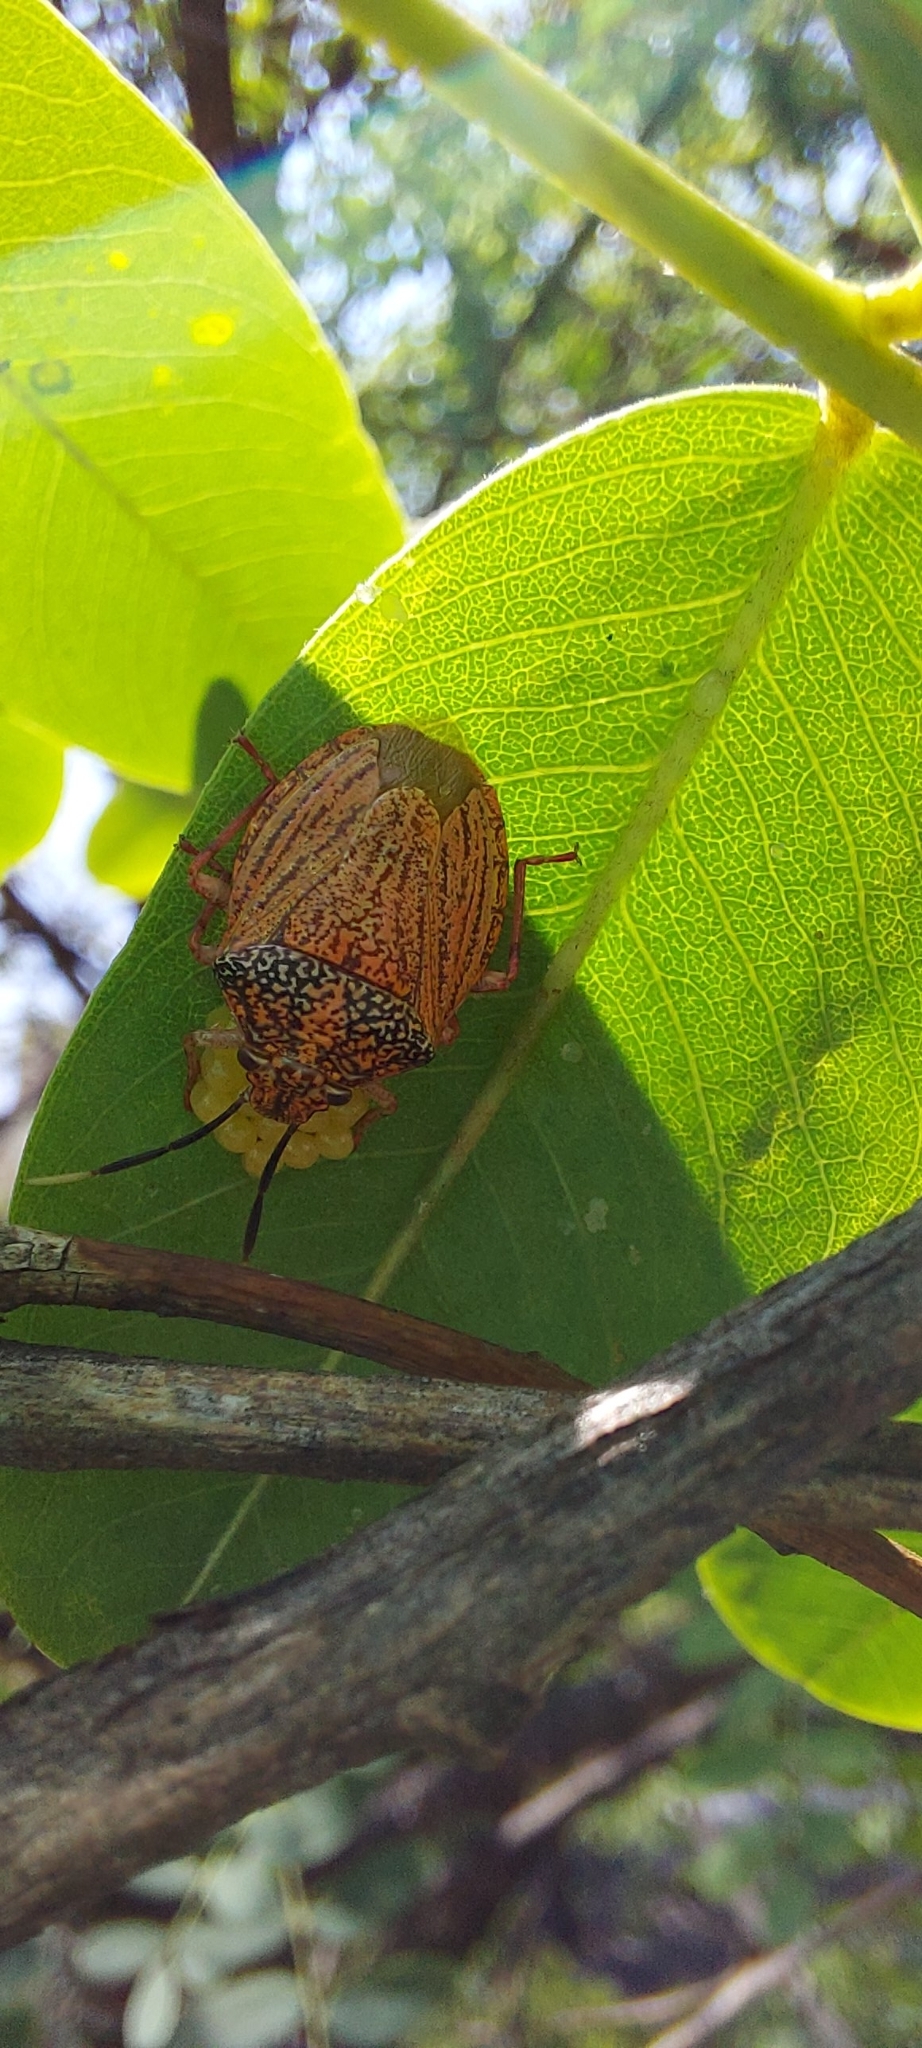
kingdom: Animalia
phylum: Arthropoda
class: Insecta
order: Hemiptera
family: Pentatomidae
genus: Antiteuchus
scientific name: Antiteuchus sepulcralis
